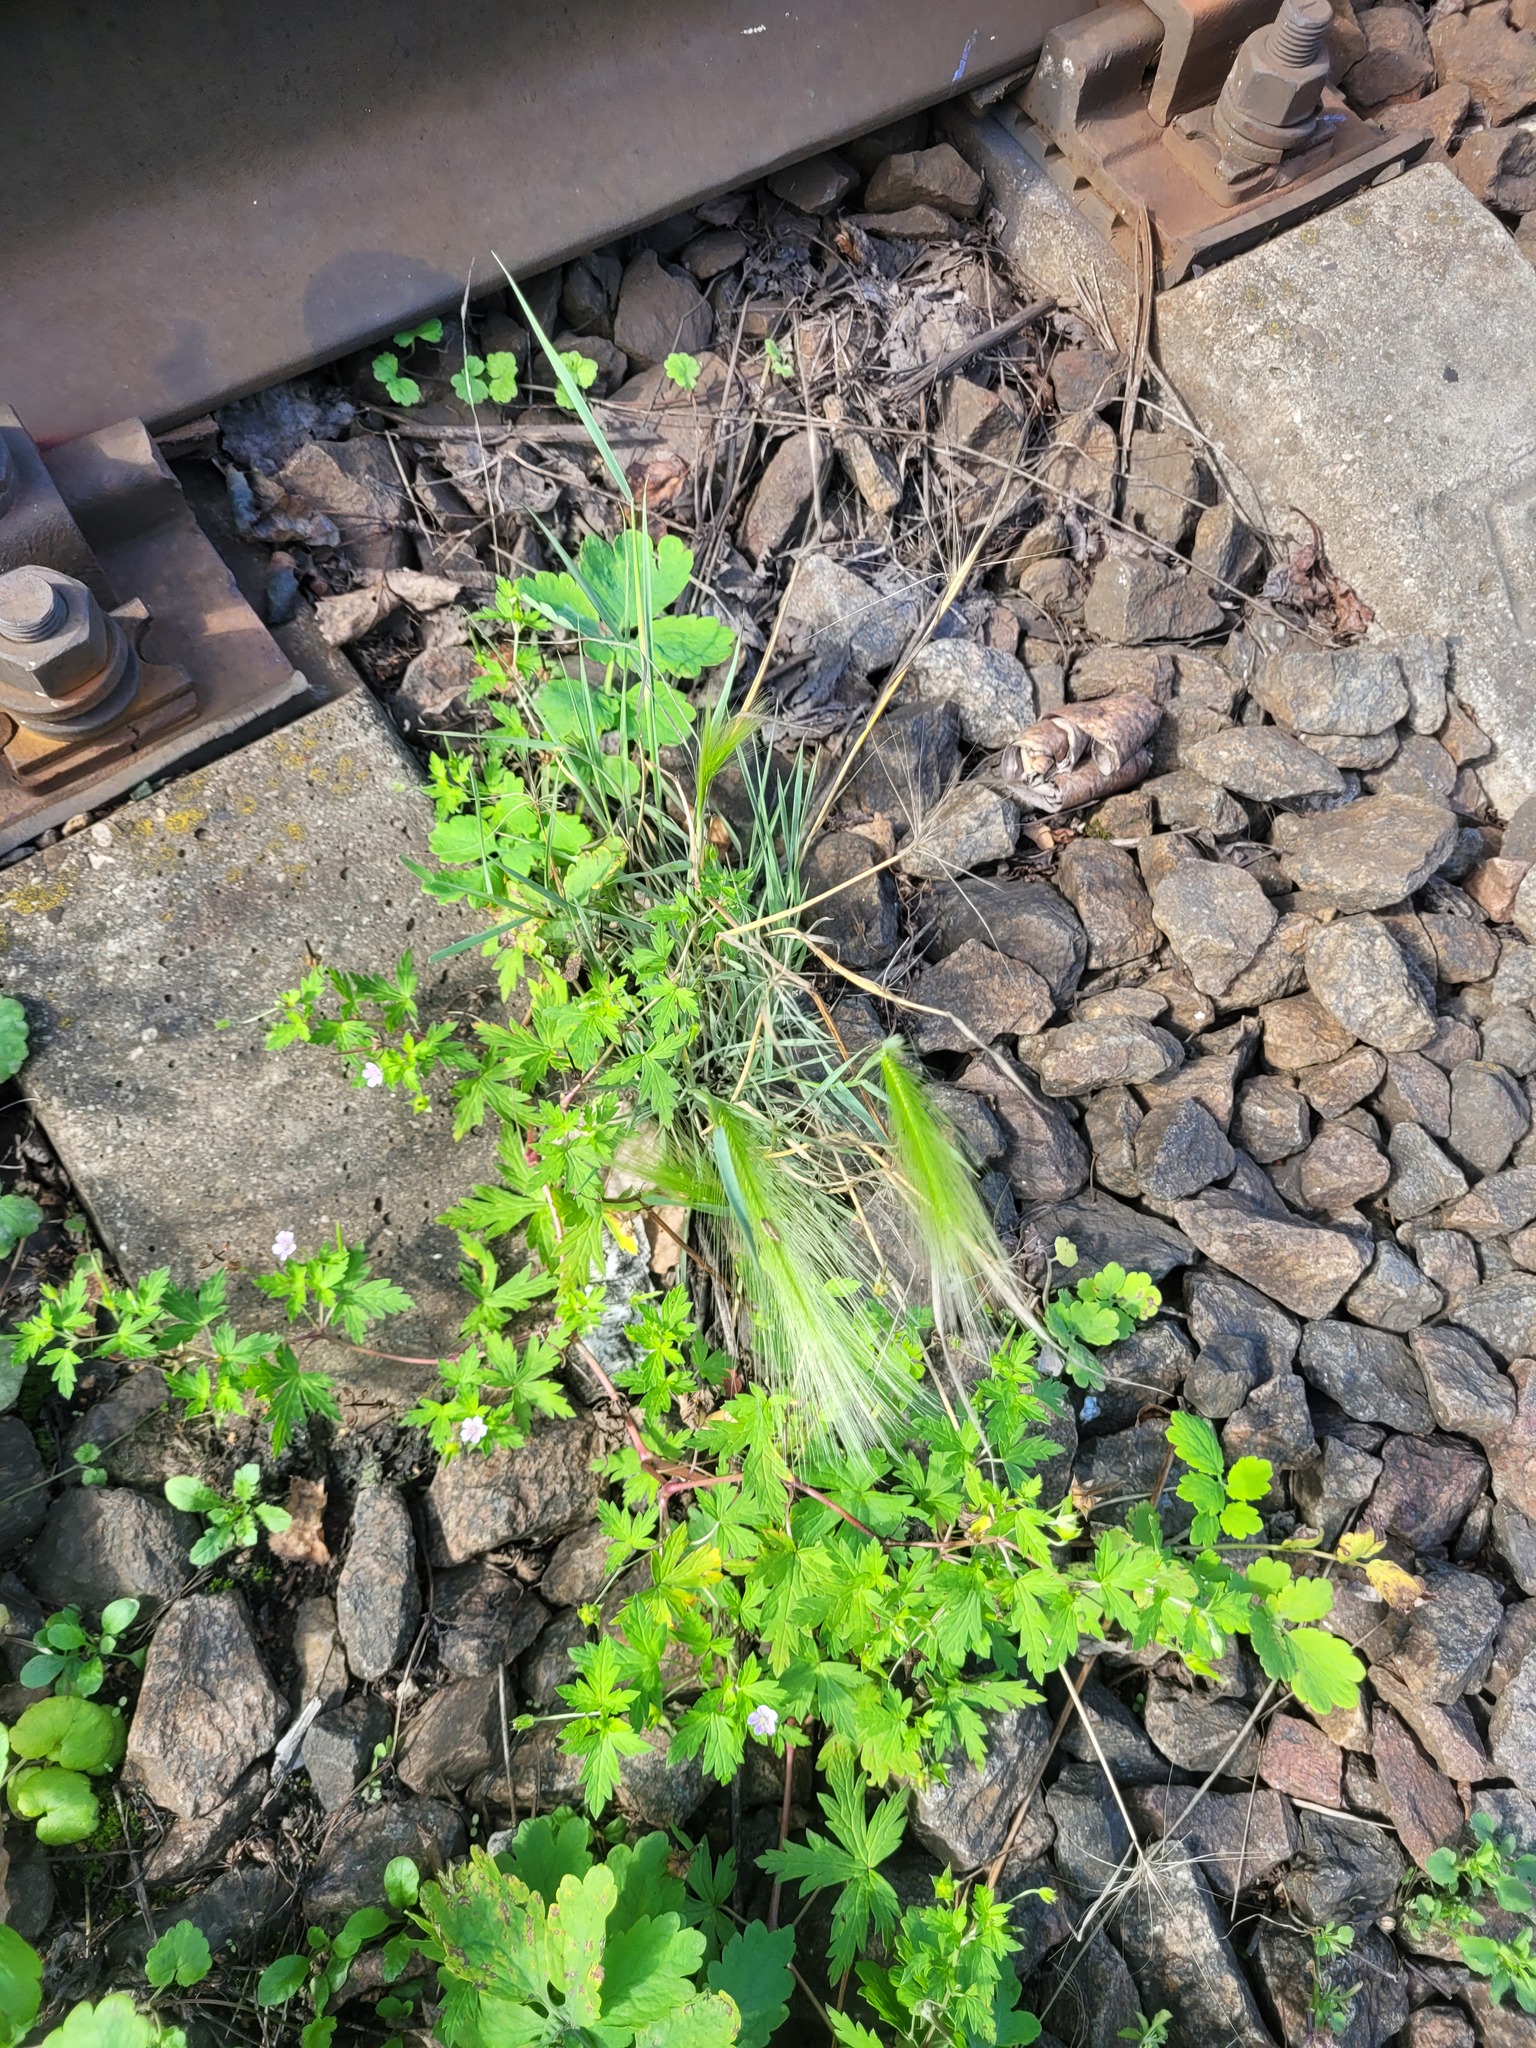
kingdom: Plantae
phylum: Tracheophyta
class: Liliopsida
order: Poales
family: Poaceae
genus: Hordeum
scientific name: Hordeum jubatum
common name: Foxtail barley
